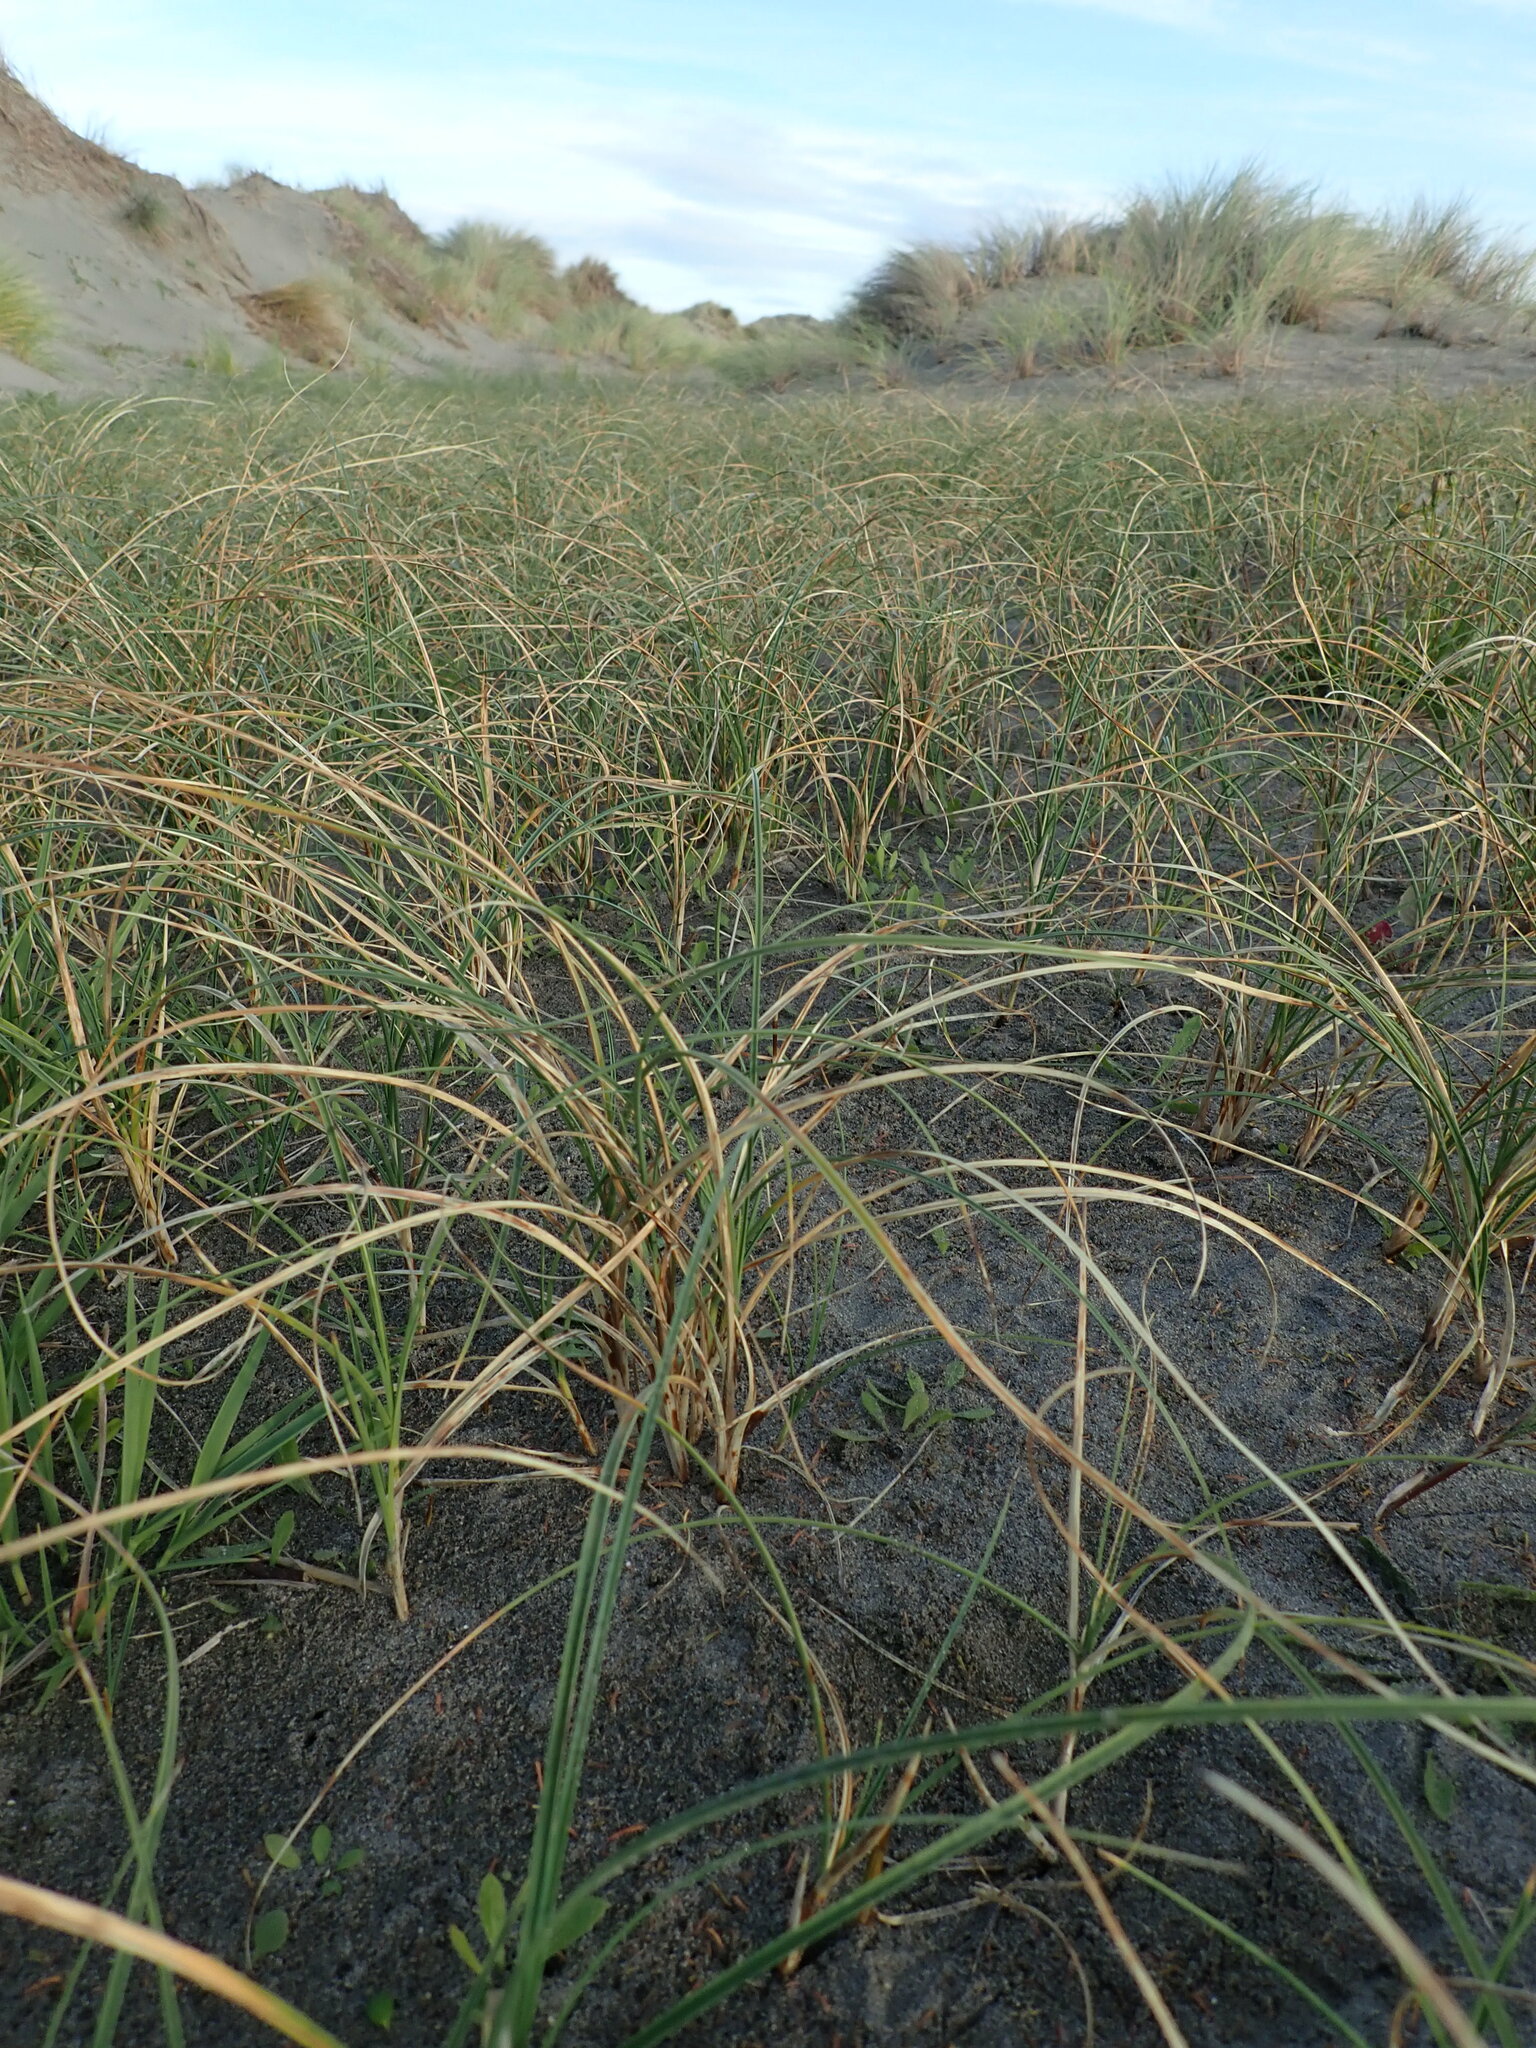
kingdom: Plantae
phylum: Tracheophyta
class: Liliopsida
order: Poales
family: Cyperaceae
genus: Carex
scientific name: Carex pumila
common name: Dwarf sedge
